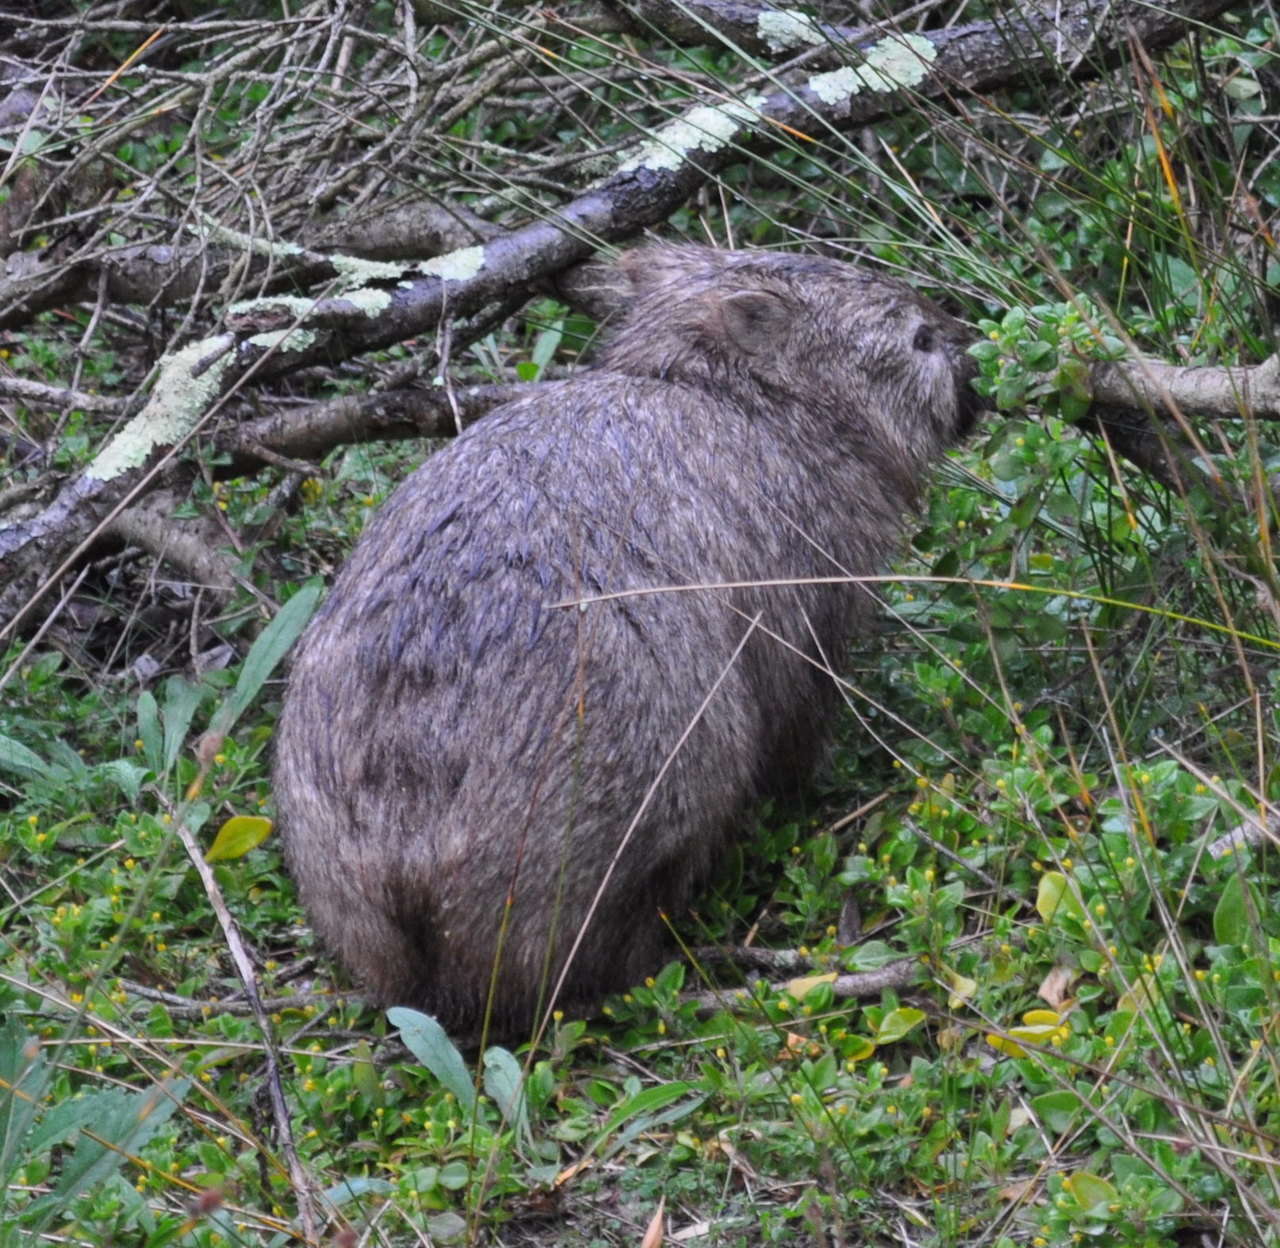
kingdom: Animalia
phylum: Chordata
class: Mammalia
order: Diprotodontia
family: Vombatidae
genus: Vombatus
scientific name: Vombatus ursinus
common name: Common wombat
